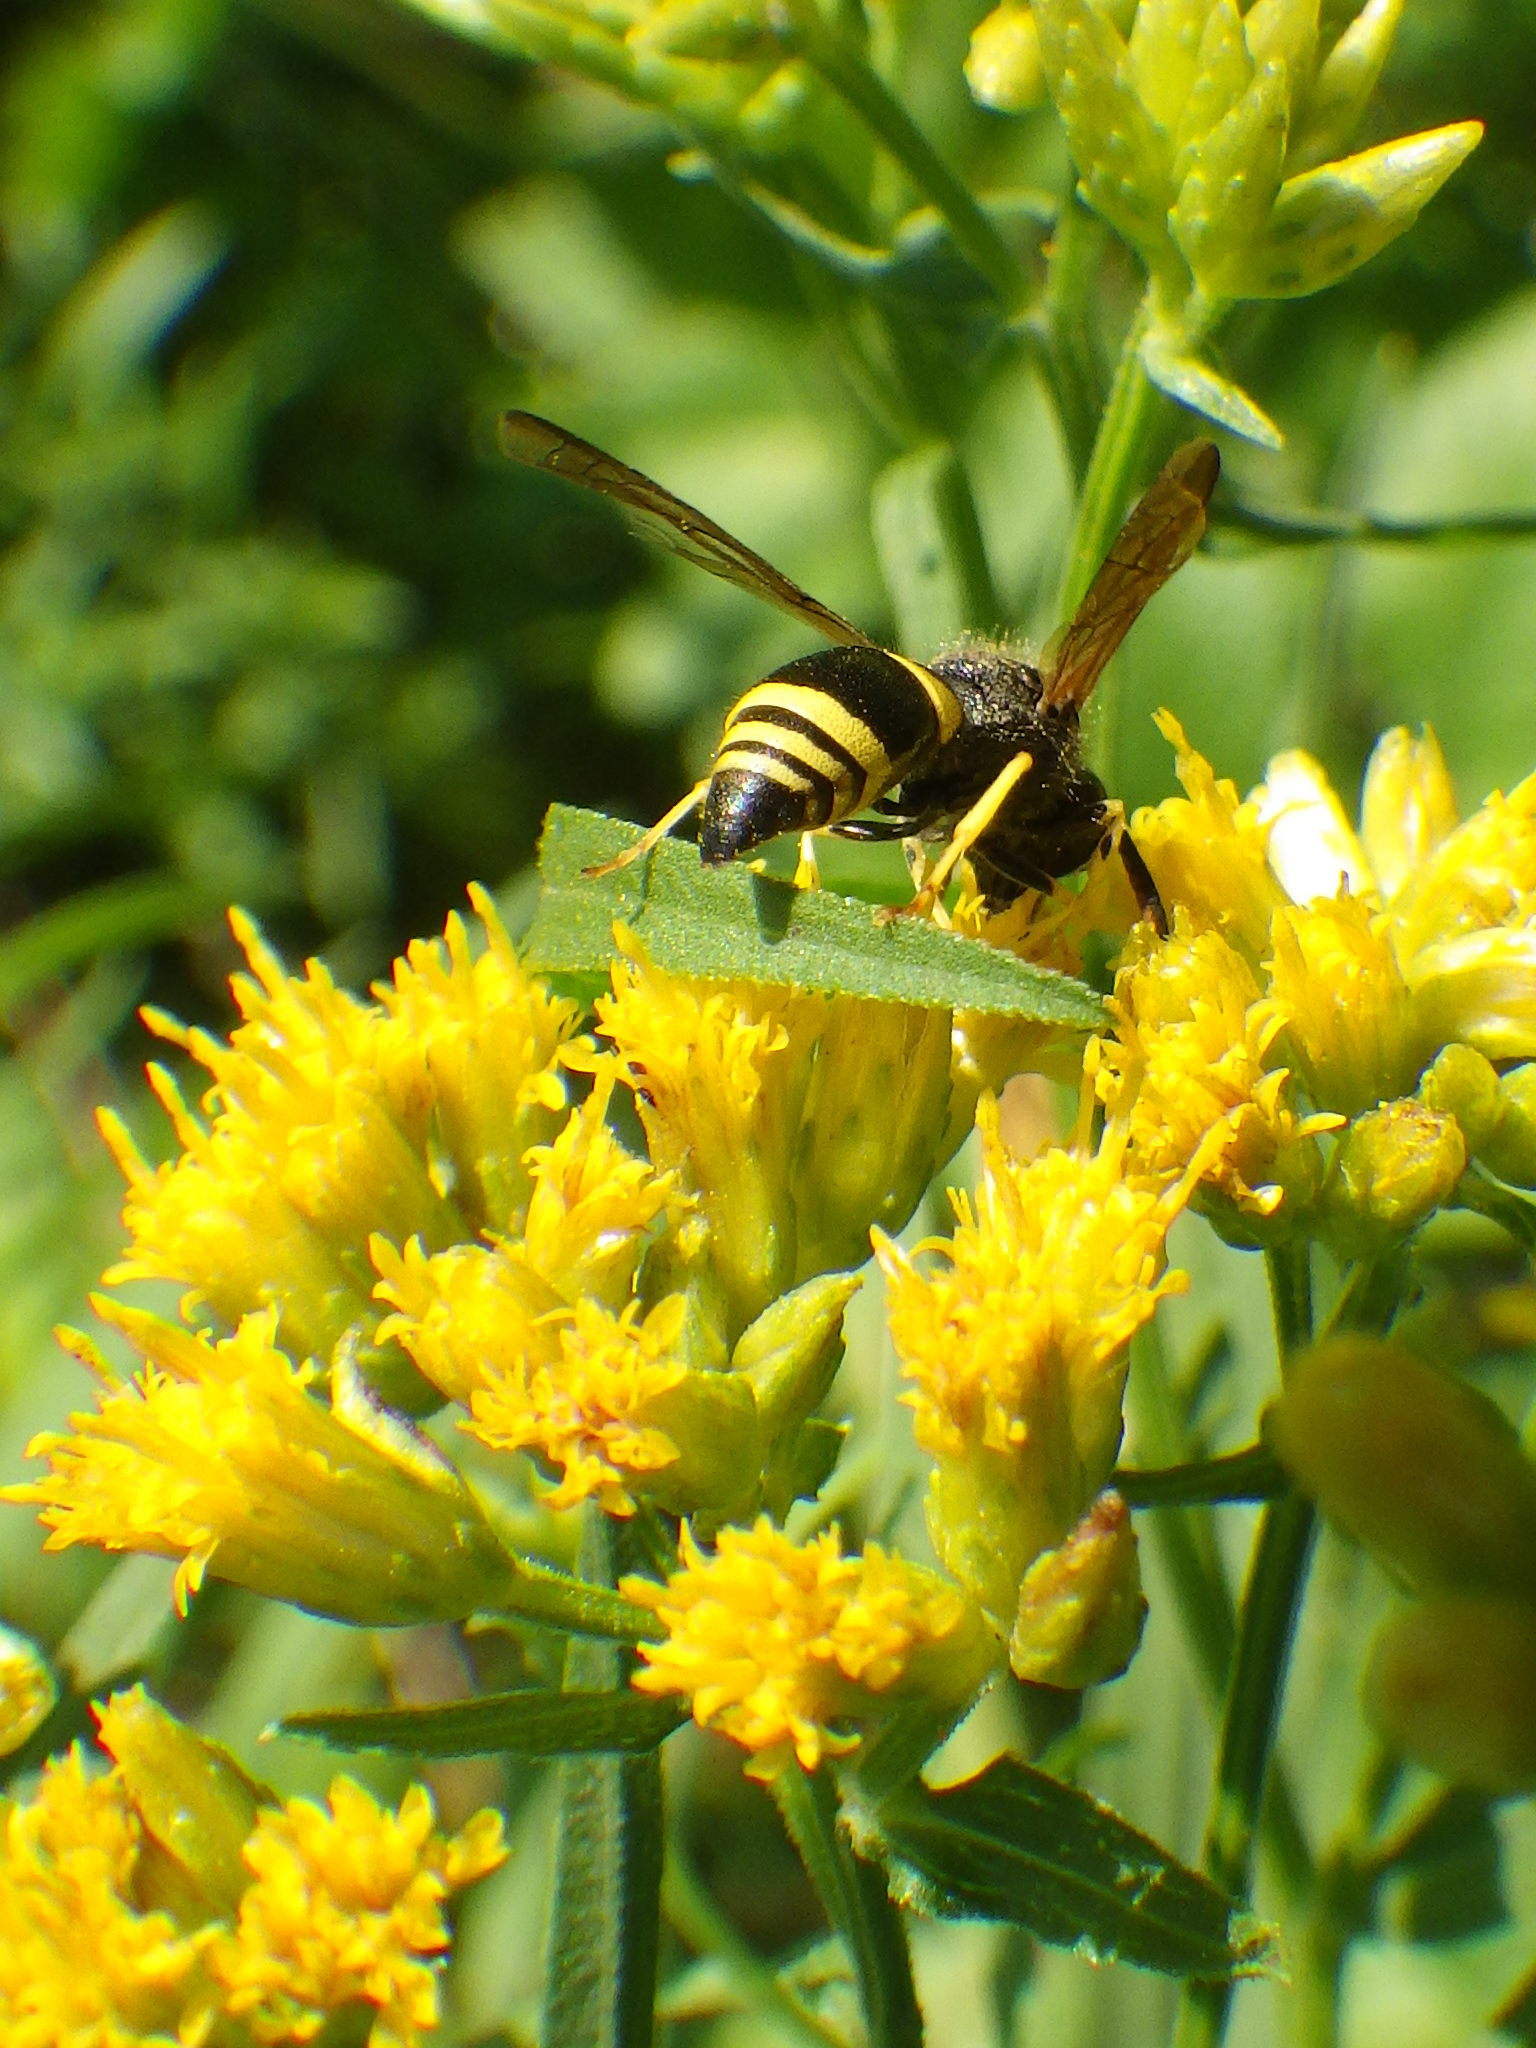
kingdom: Animalia
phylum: Arthropoda
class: Insecta
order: Hymenoptera
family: Vespidae
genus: Ancistrocerus
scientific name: Ancistrocerus
